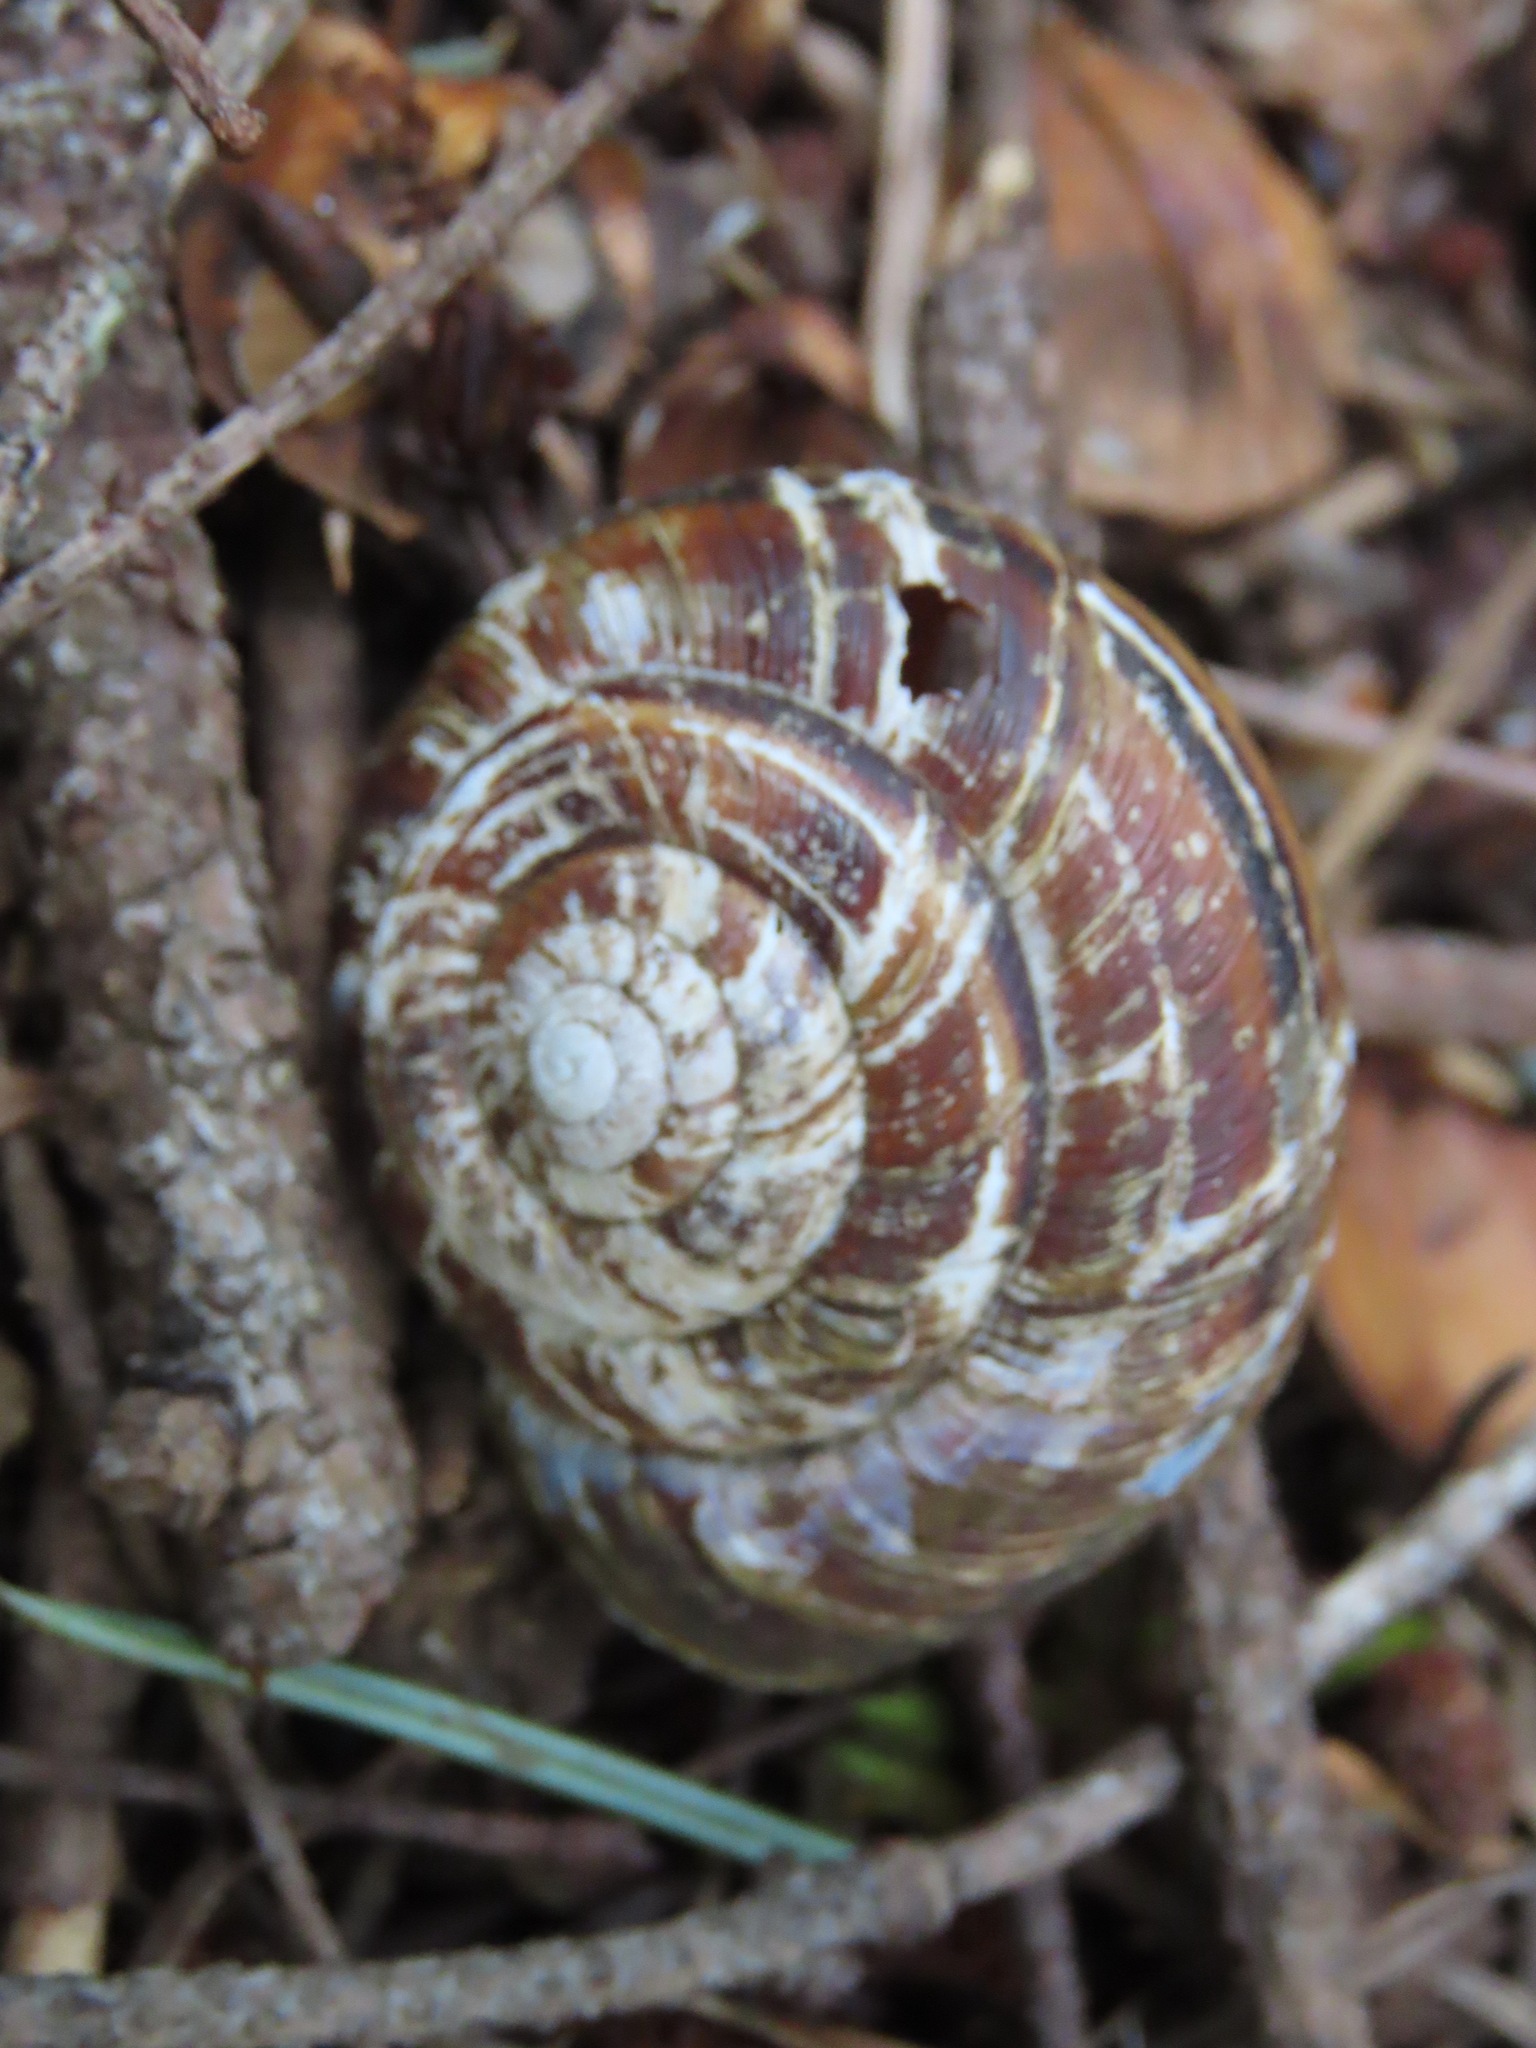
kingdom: Animalia
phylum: Mollusca
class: Gastropoda
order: Stylommatophora
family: Xanthonychidae
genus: Monadenia
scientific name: Monadenia fidelis
